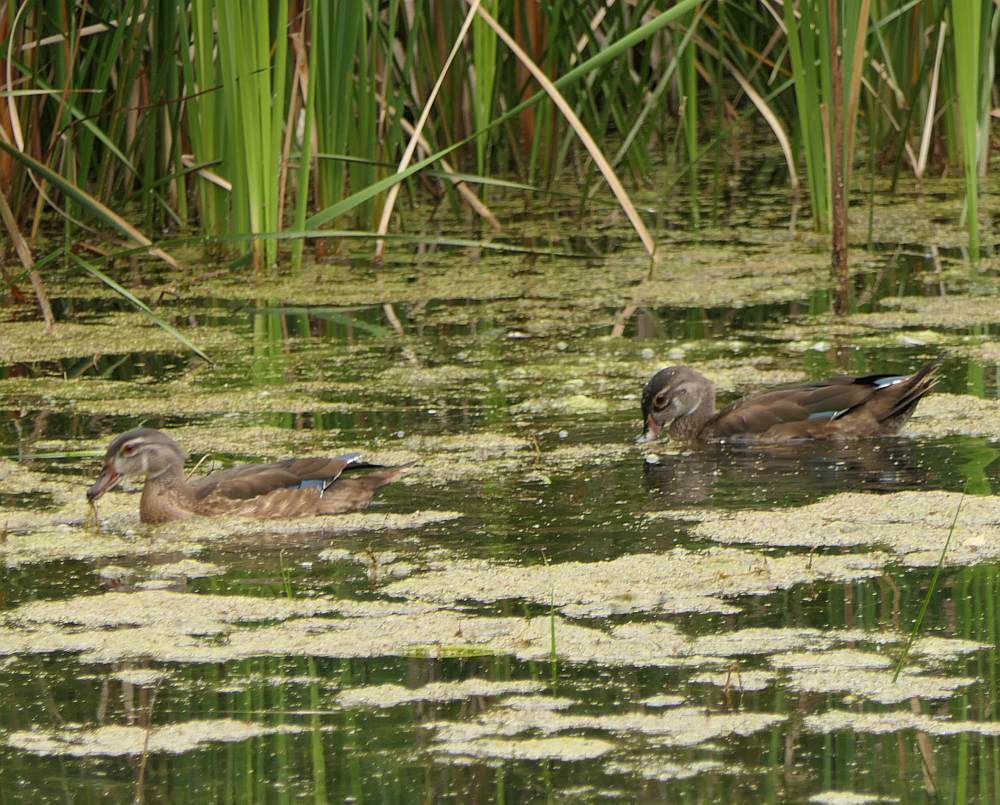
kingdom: Animalia
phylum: Chordata
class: Aves
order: Anseriformes
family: Anatidae
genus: Aix
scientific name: Aix sponsa
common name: Wood duck
